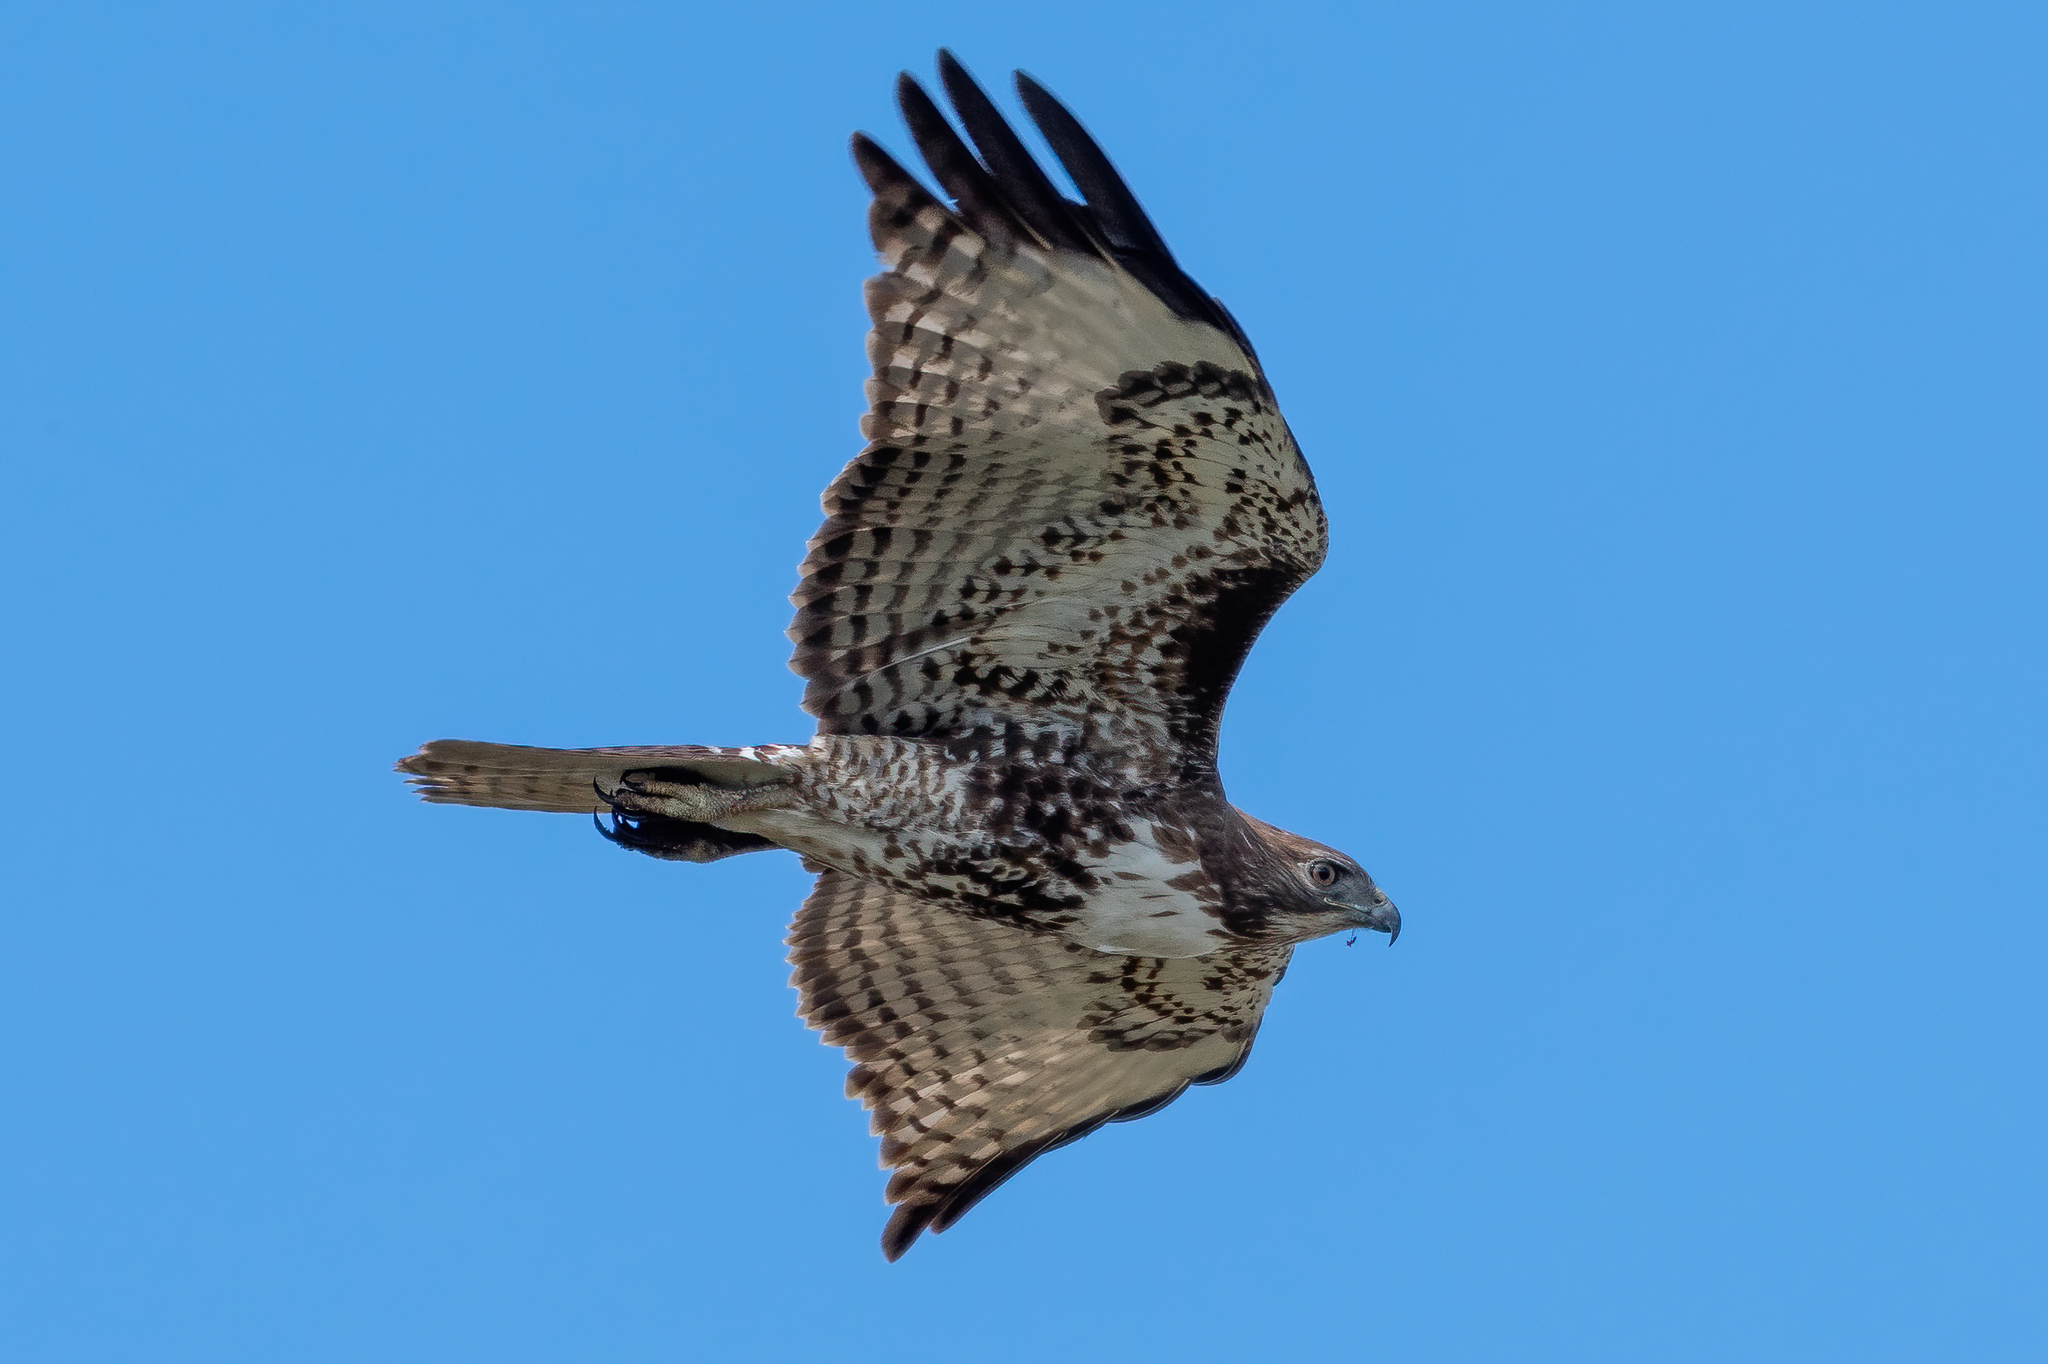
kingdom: Animalia
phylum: Chordata
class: Aves
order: Accipitriformes
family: Accipitridae
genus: Buteo
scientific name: Buteo jamaicensis
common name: Red-tailed hawk
